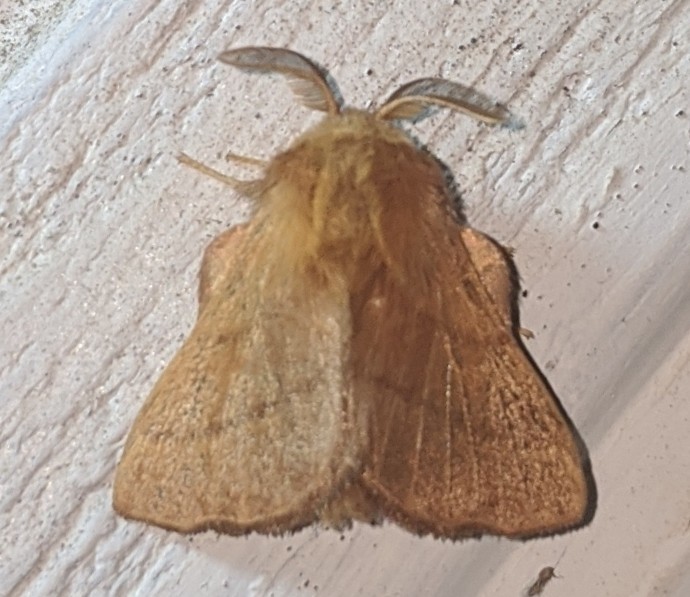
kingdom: Animalia
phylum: Arthropoda
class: Insecta
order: Lepidoptera
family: Lasiocampidae
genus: Malacosoma
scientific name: Malacosoma disstria
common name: Forest tent caterpillar
